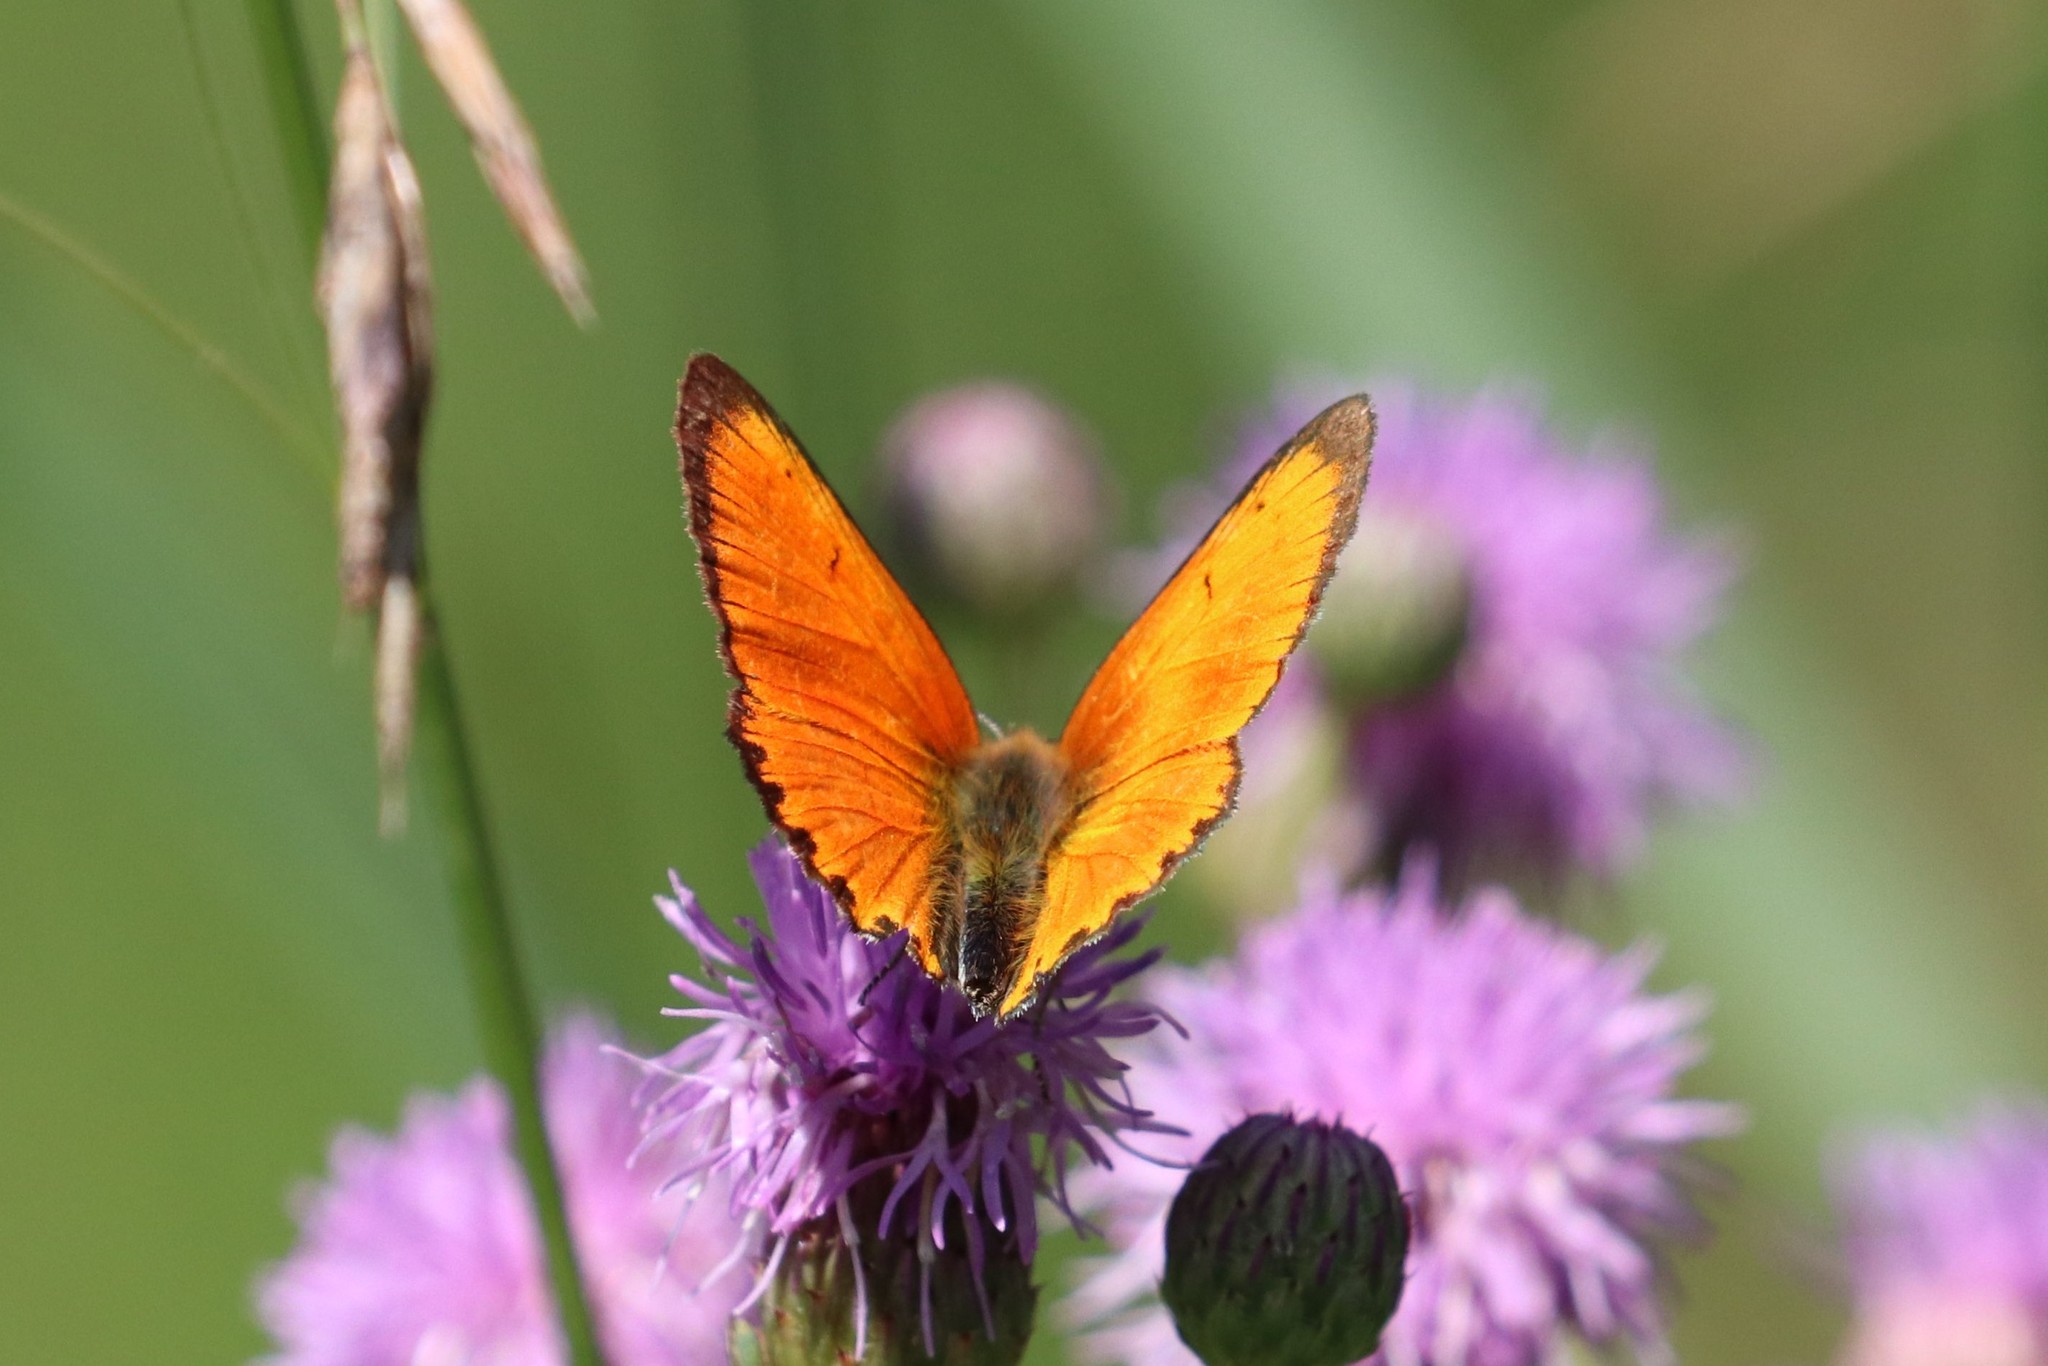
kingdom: Animalia
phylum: Arthropoda
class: Insecta
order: Lepidoptera
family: Lycaenidae
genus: Lycaena
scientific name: Lycaena virgaureae
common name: Scarce copper
